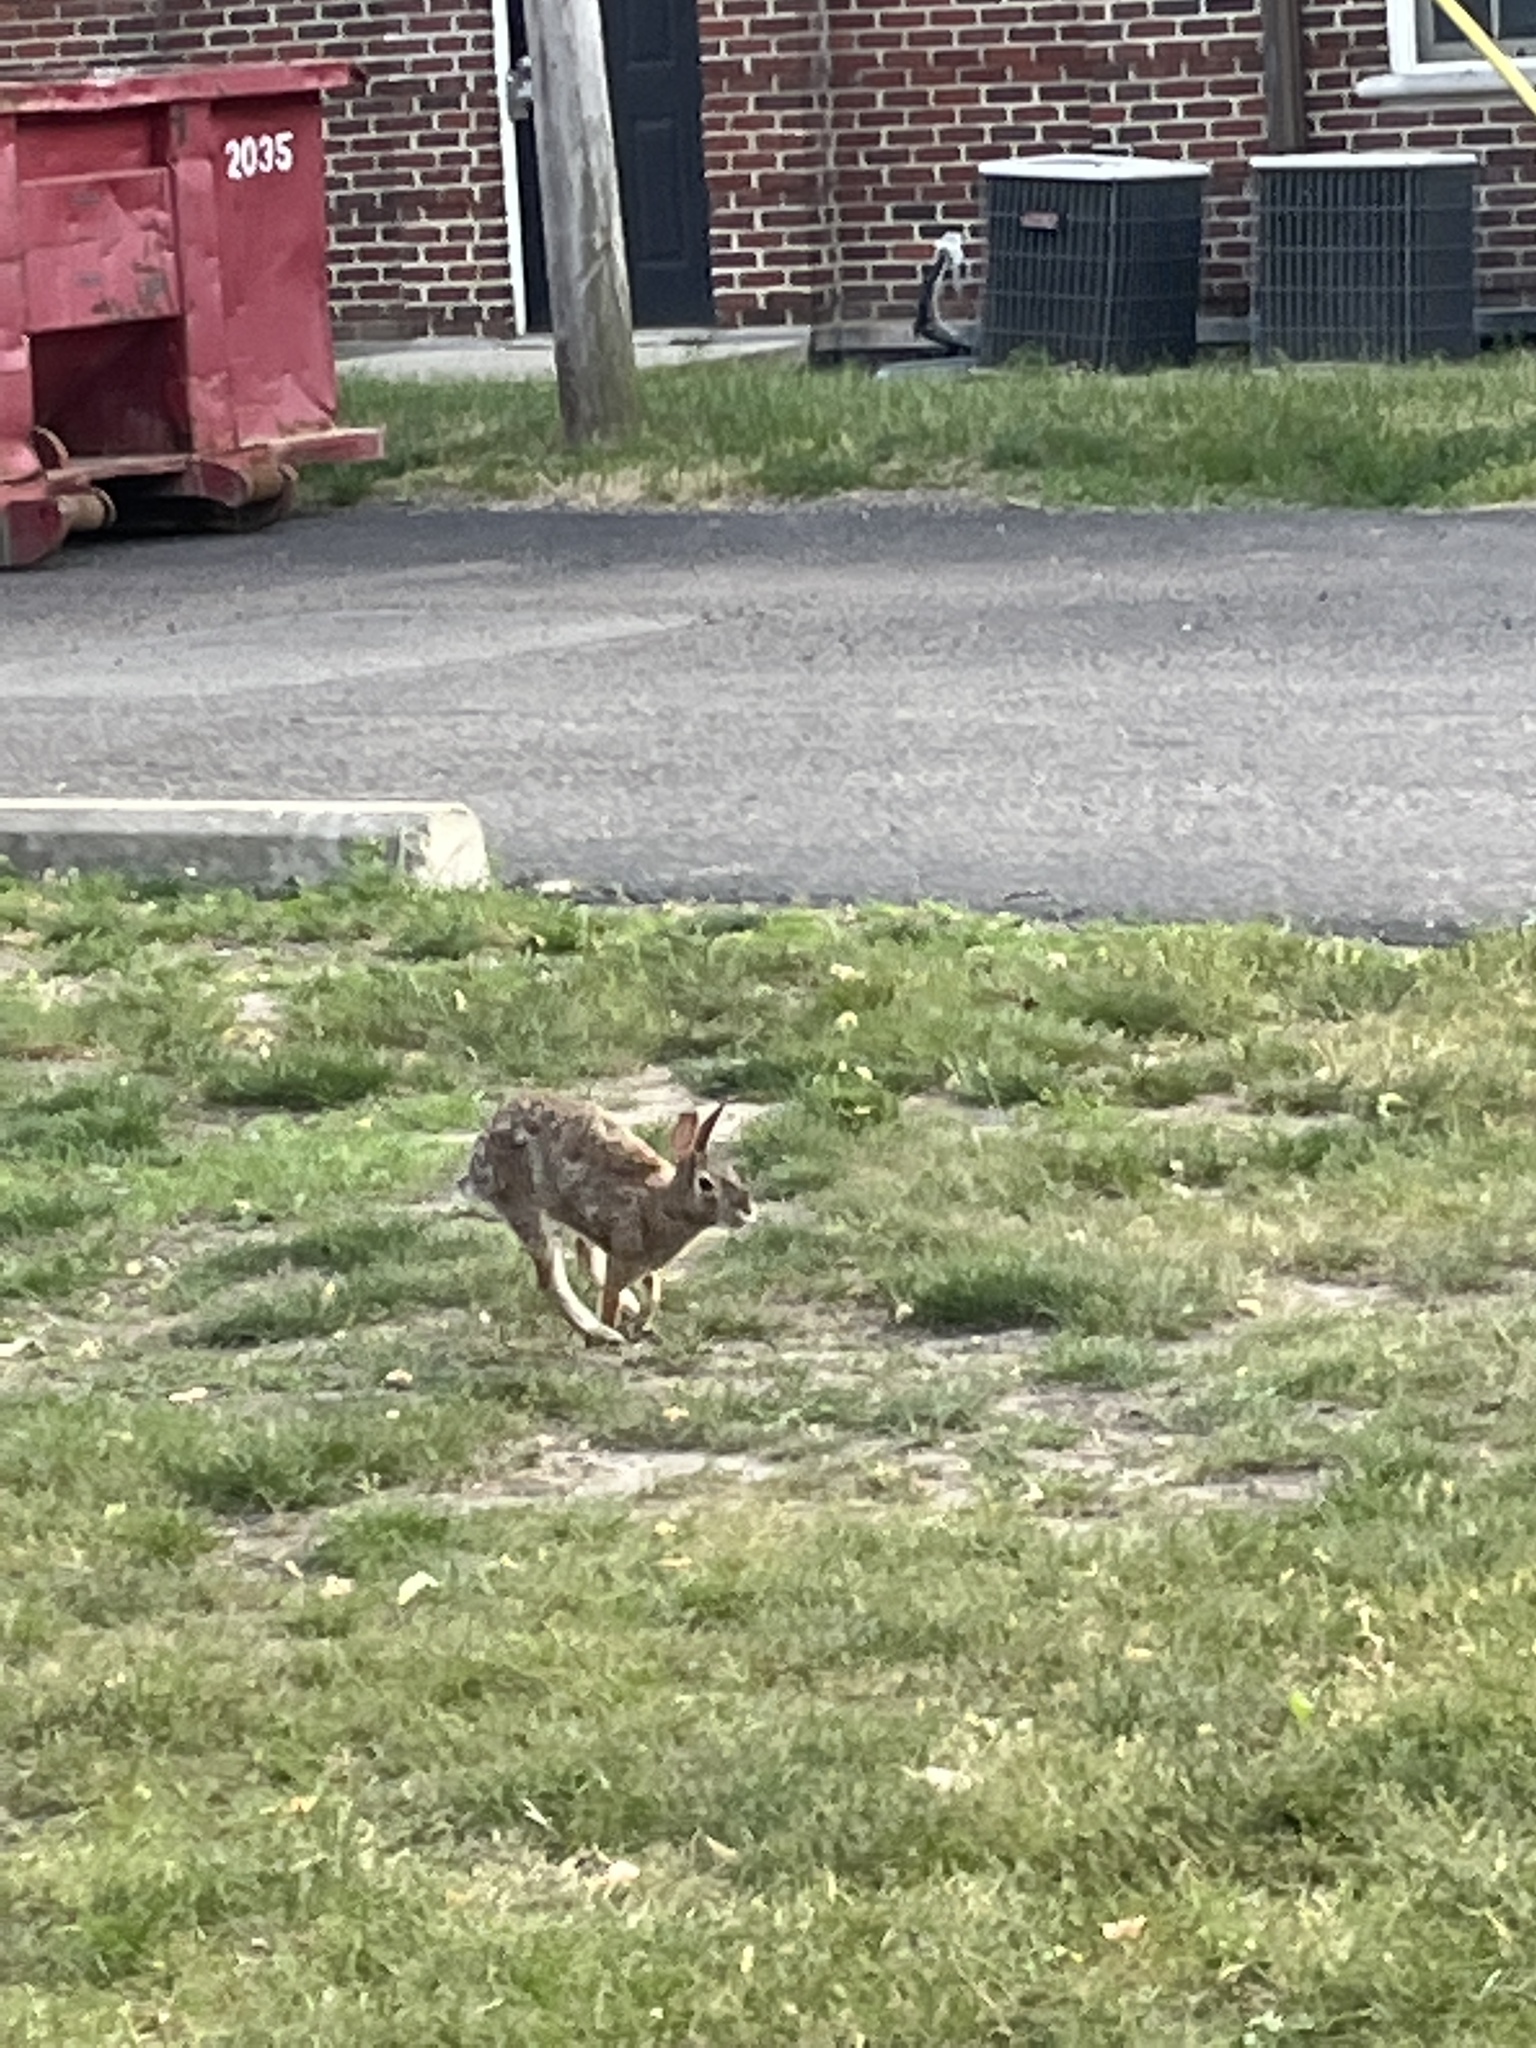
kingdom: Animalia
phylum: Chordata
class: Mammalia
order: Lagomorpha
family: Leporidae
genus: Sylvilagus
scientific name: Sylvilagus floridanus
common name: Eastern cottontail
